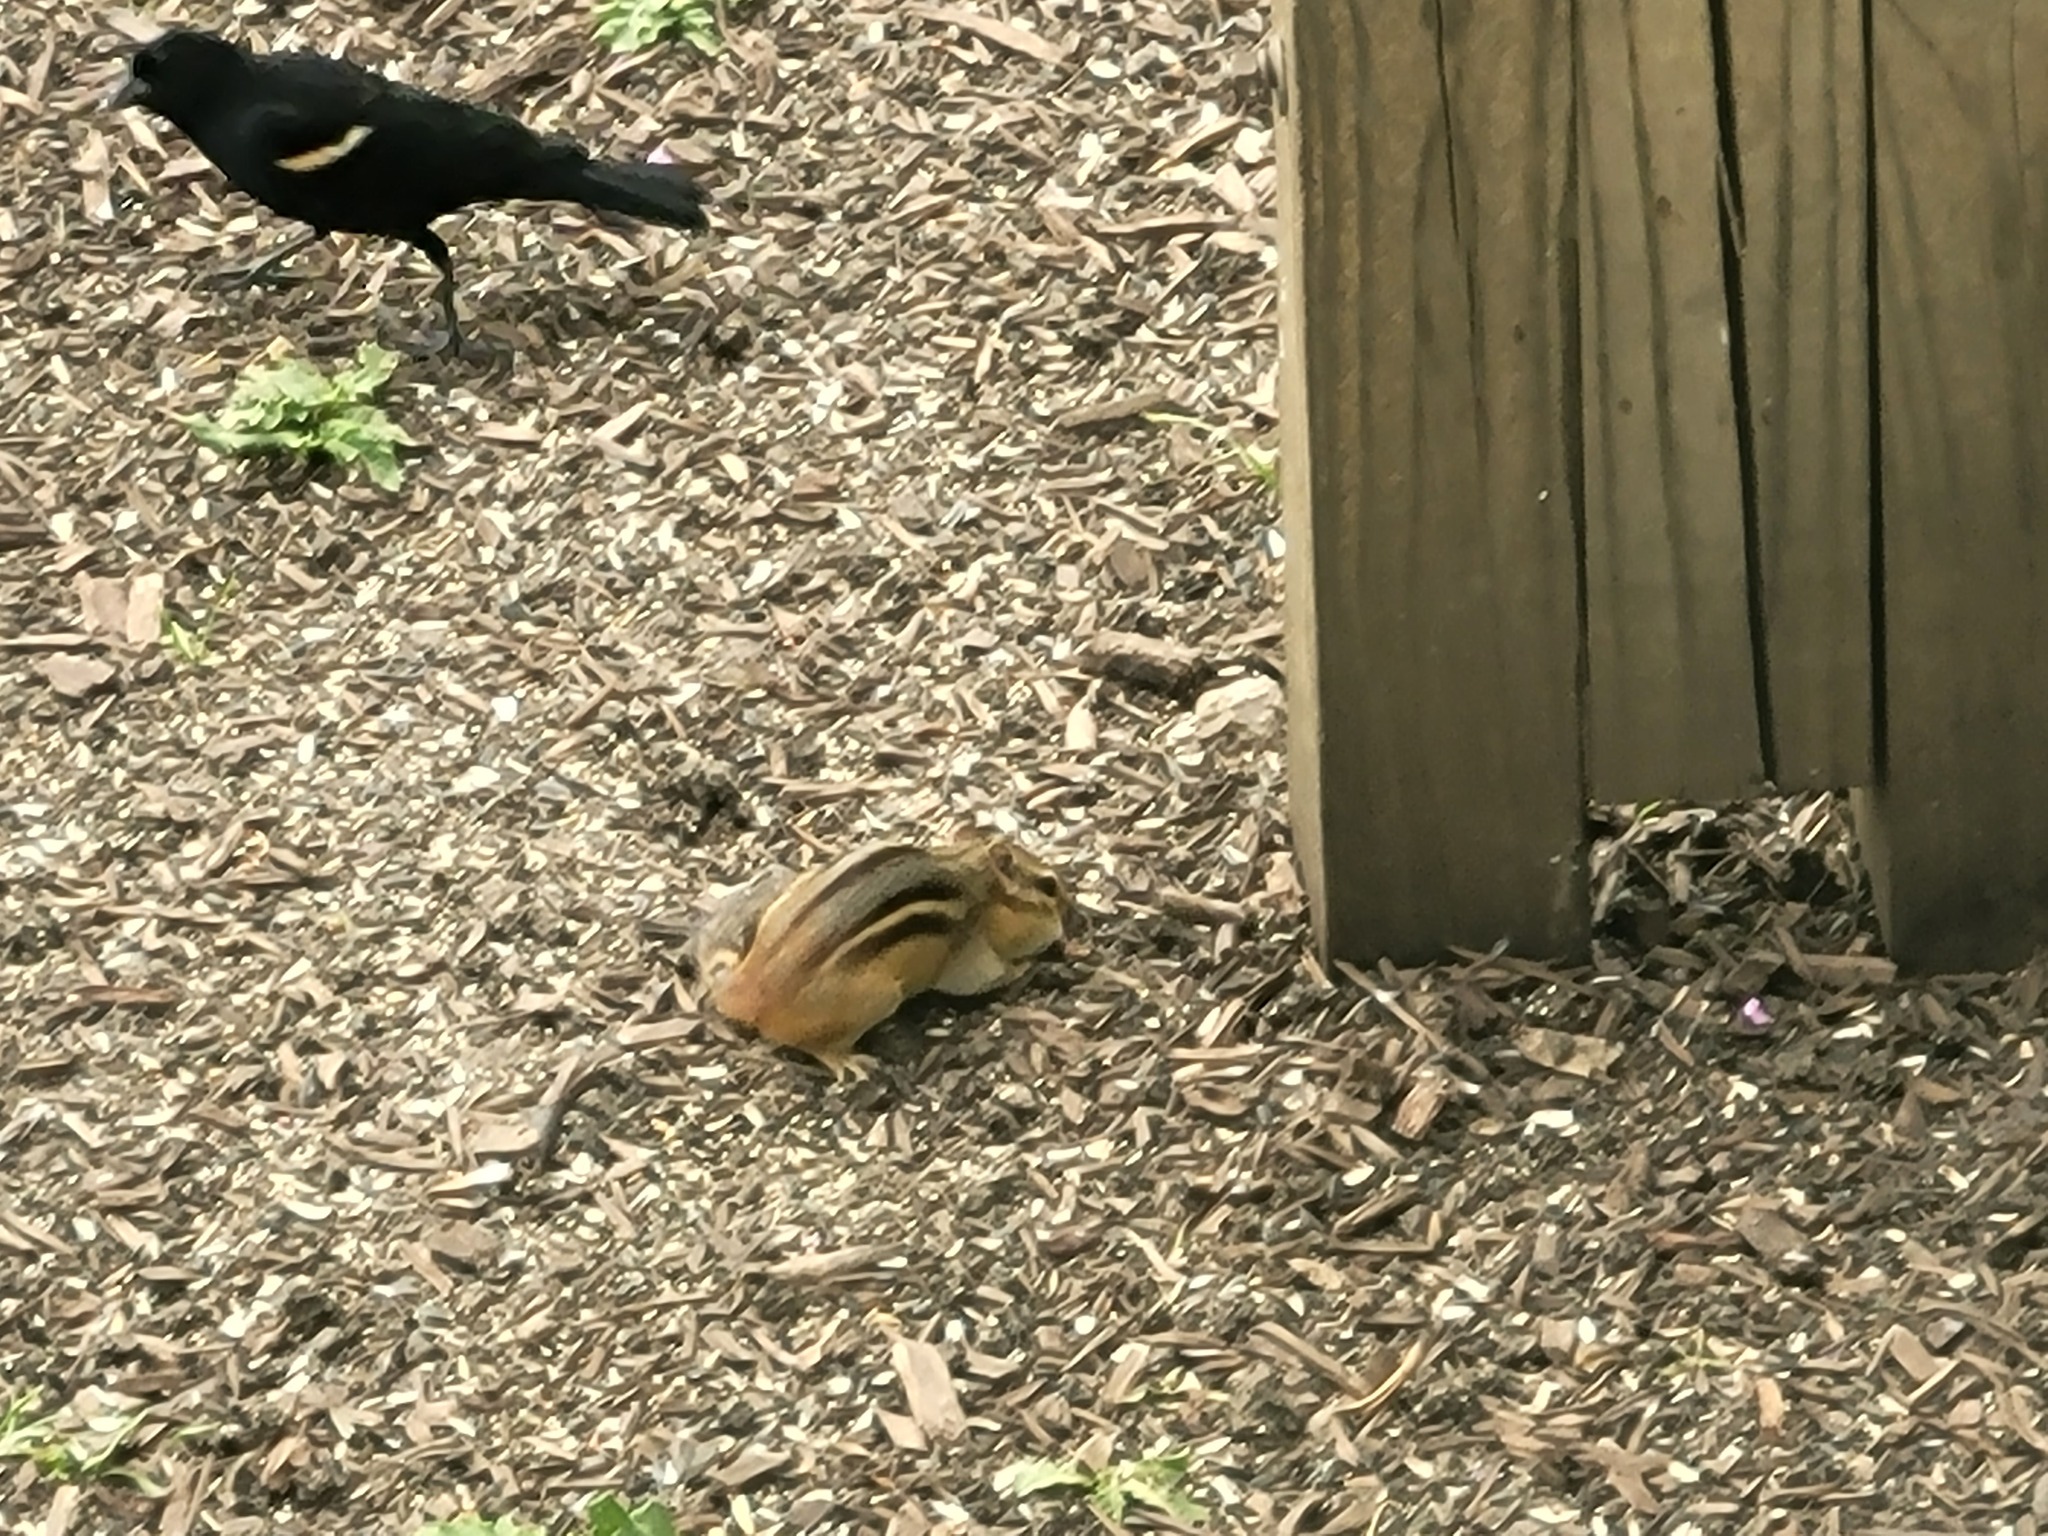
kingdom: Animalia
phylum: Chordata
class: Aves
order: Passeriformes
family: Icteridae
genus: Agelaius
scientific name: Agelaius phoeniceus
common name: Red-winged blackbird
